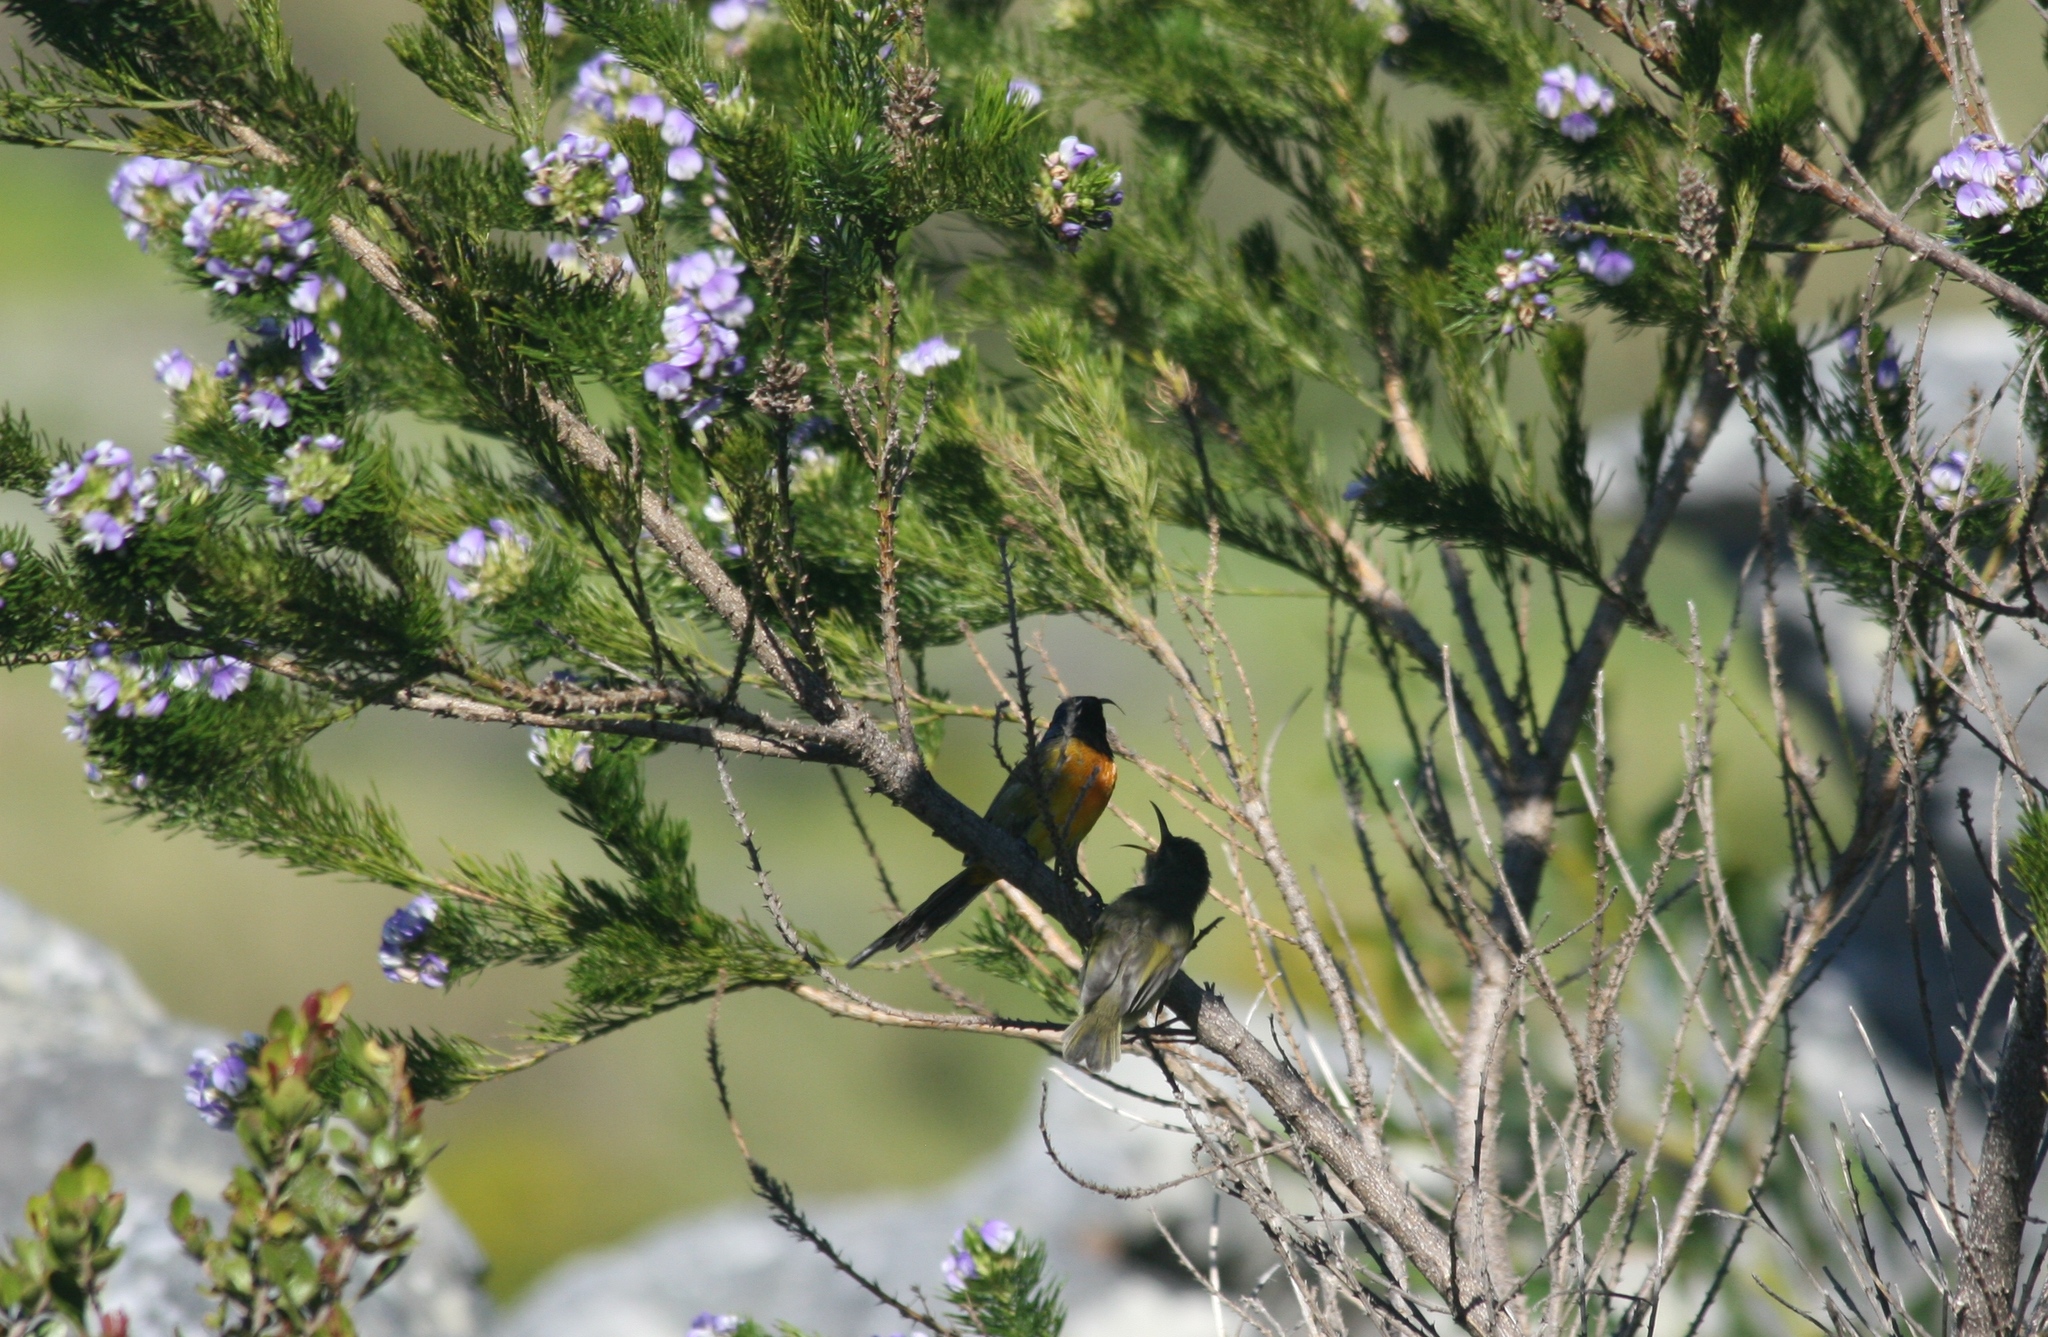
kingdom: Animalia
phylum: Chordata
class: Aves
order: Passeriformes
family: Nectariniidae
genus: Anthobaphes
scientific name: Anthobaphes violacea
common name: Orange-breasted sunbird
